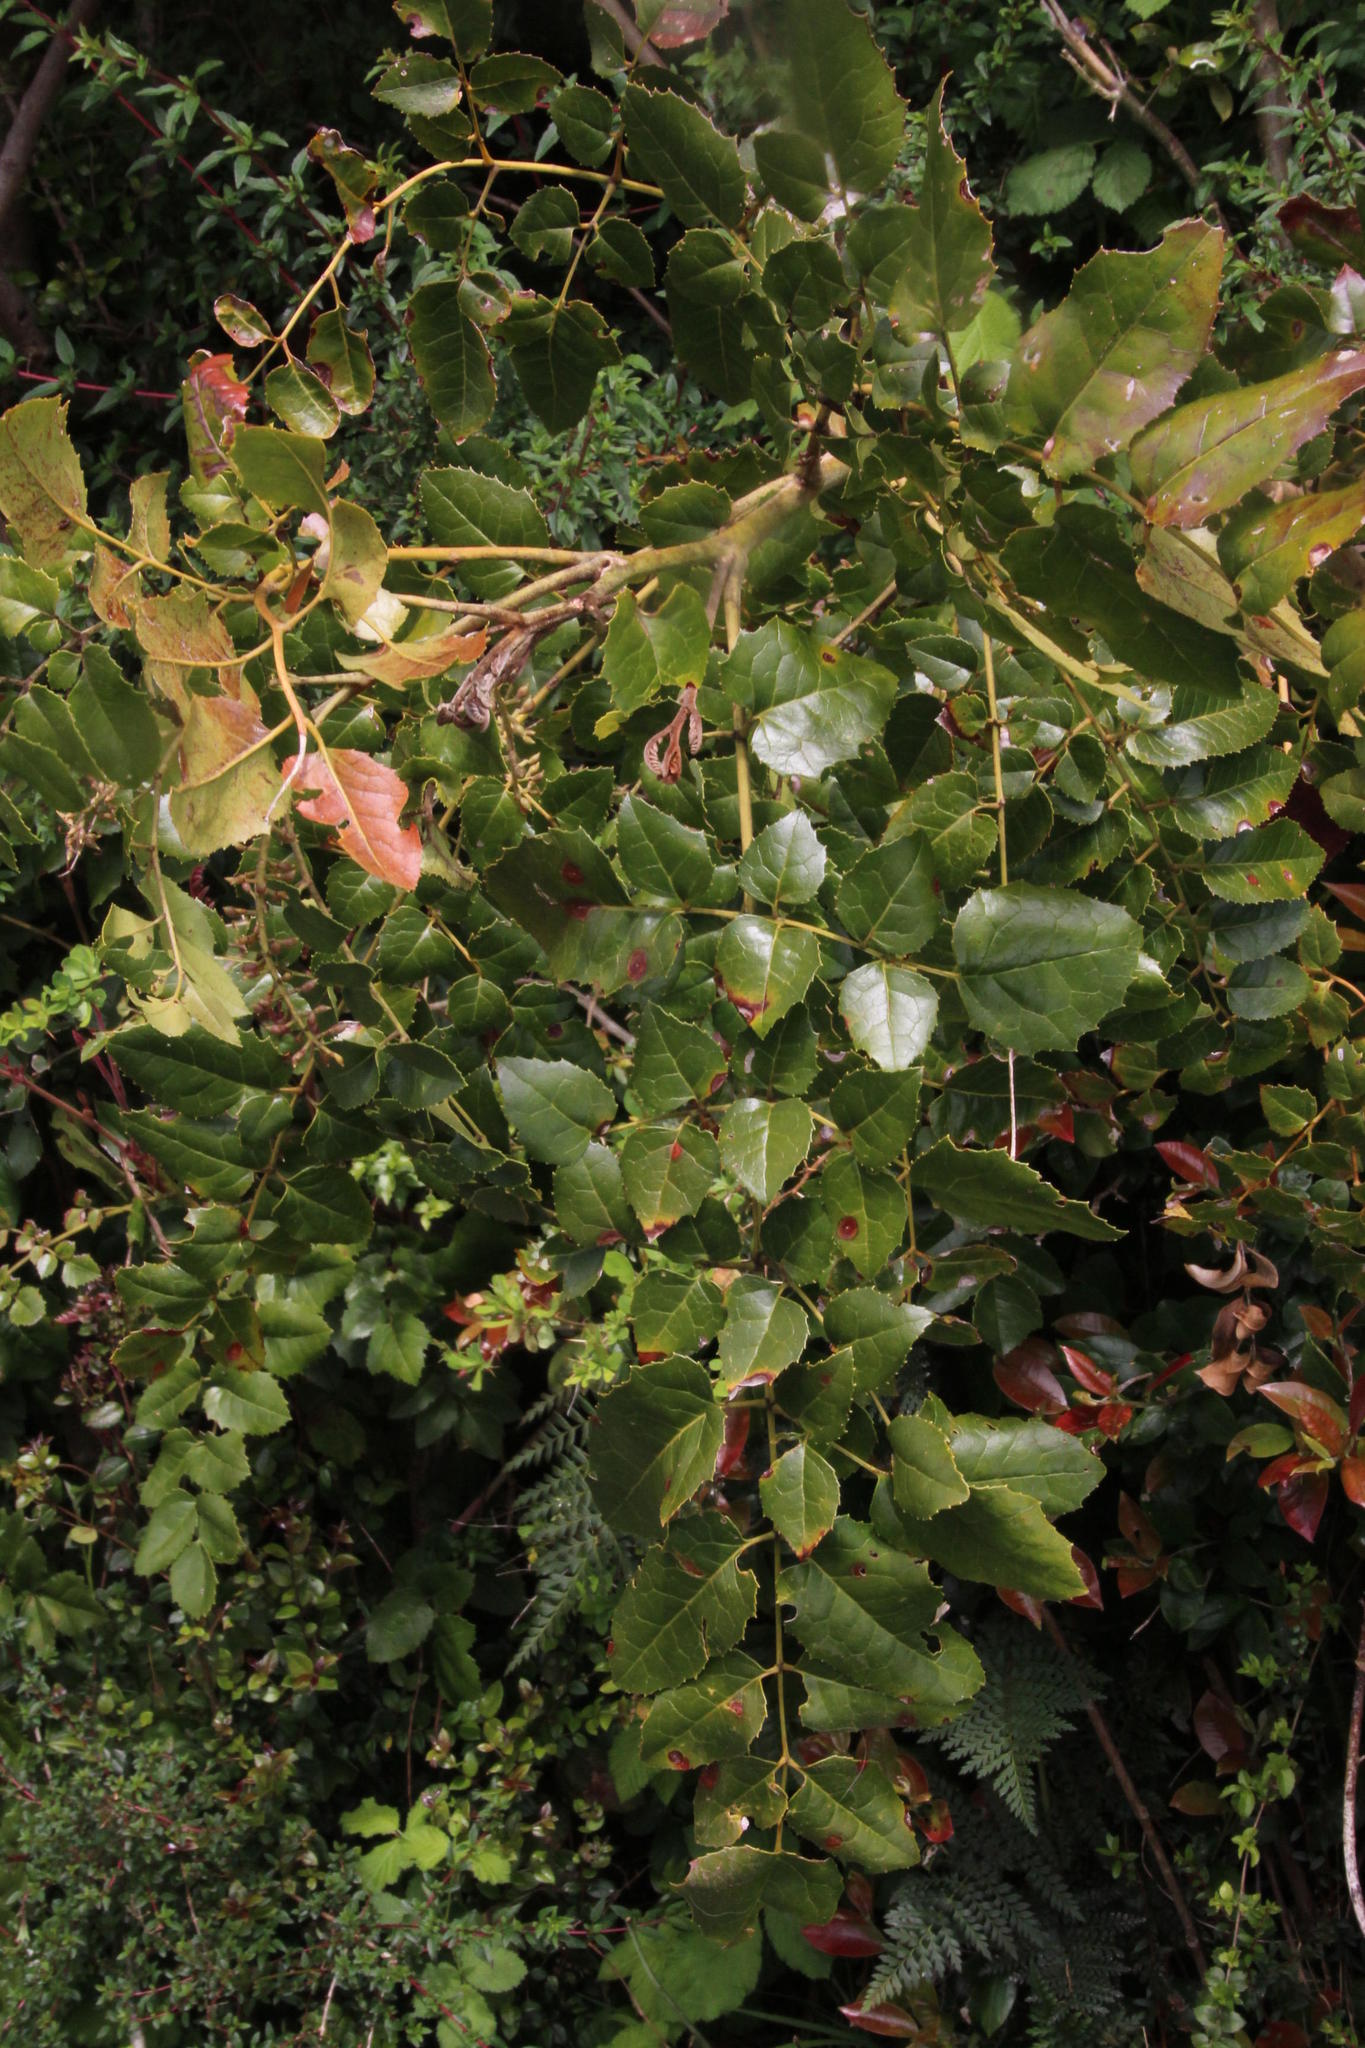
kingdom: Plantae
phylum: Tracheophyta
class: Magnoliopsida
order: Proteales
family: Proteaceae
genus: Gevuina
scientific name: Gevuina avellana
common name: Chilean hazel
